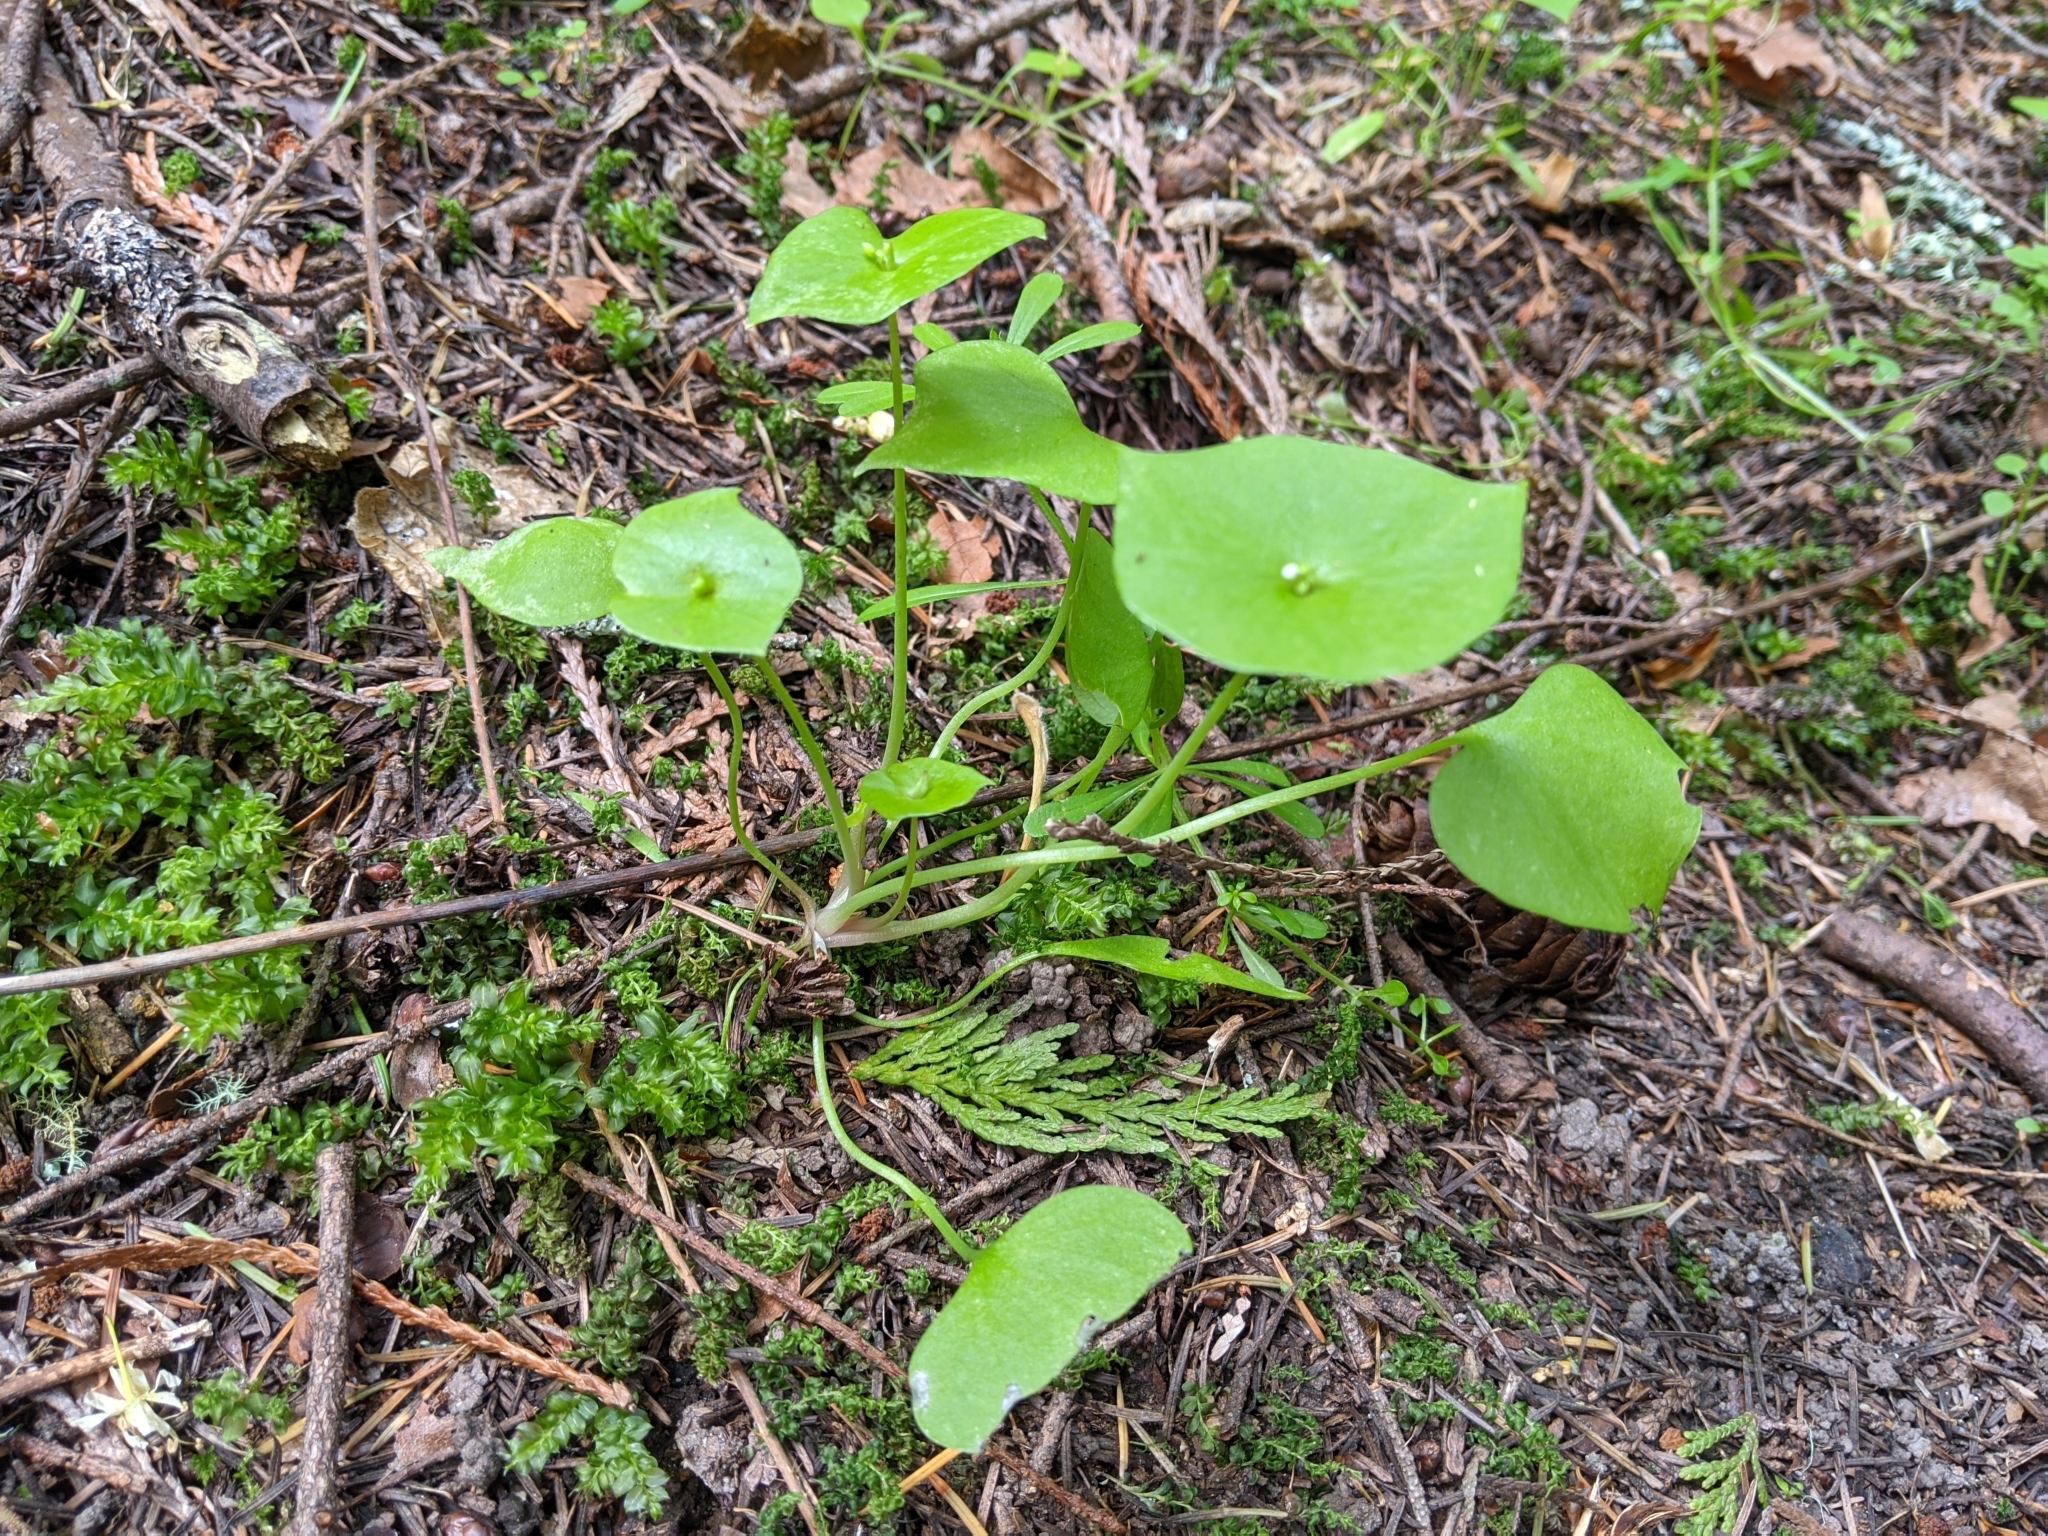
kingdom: Plantae
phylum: Tracheophyta
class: Magnoliopsida
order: Caryophyllales
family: Montiaceae
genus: Claytonia
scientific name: Claytonia perfoliata
